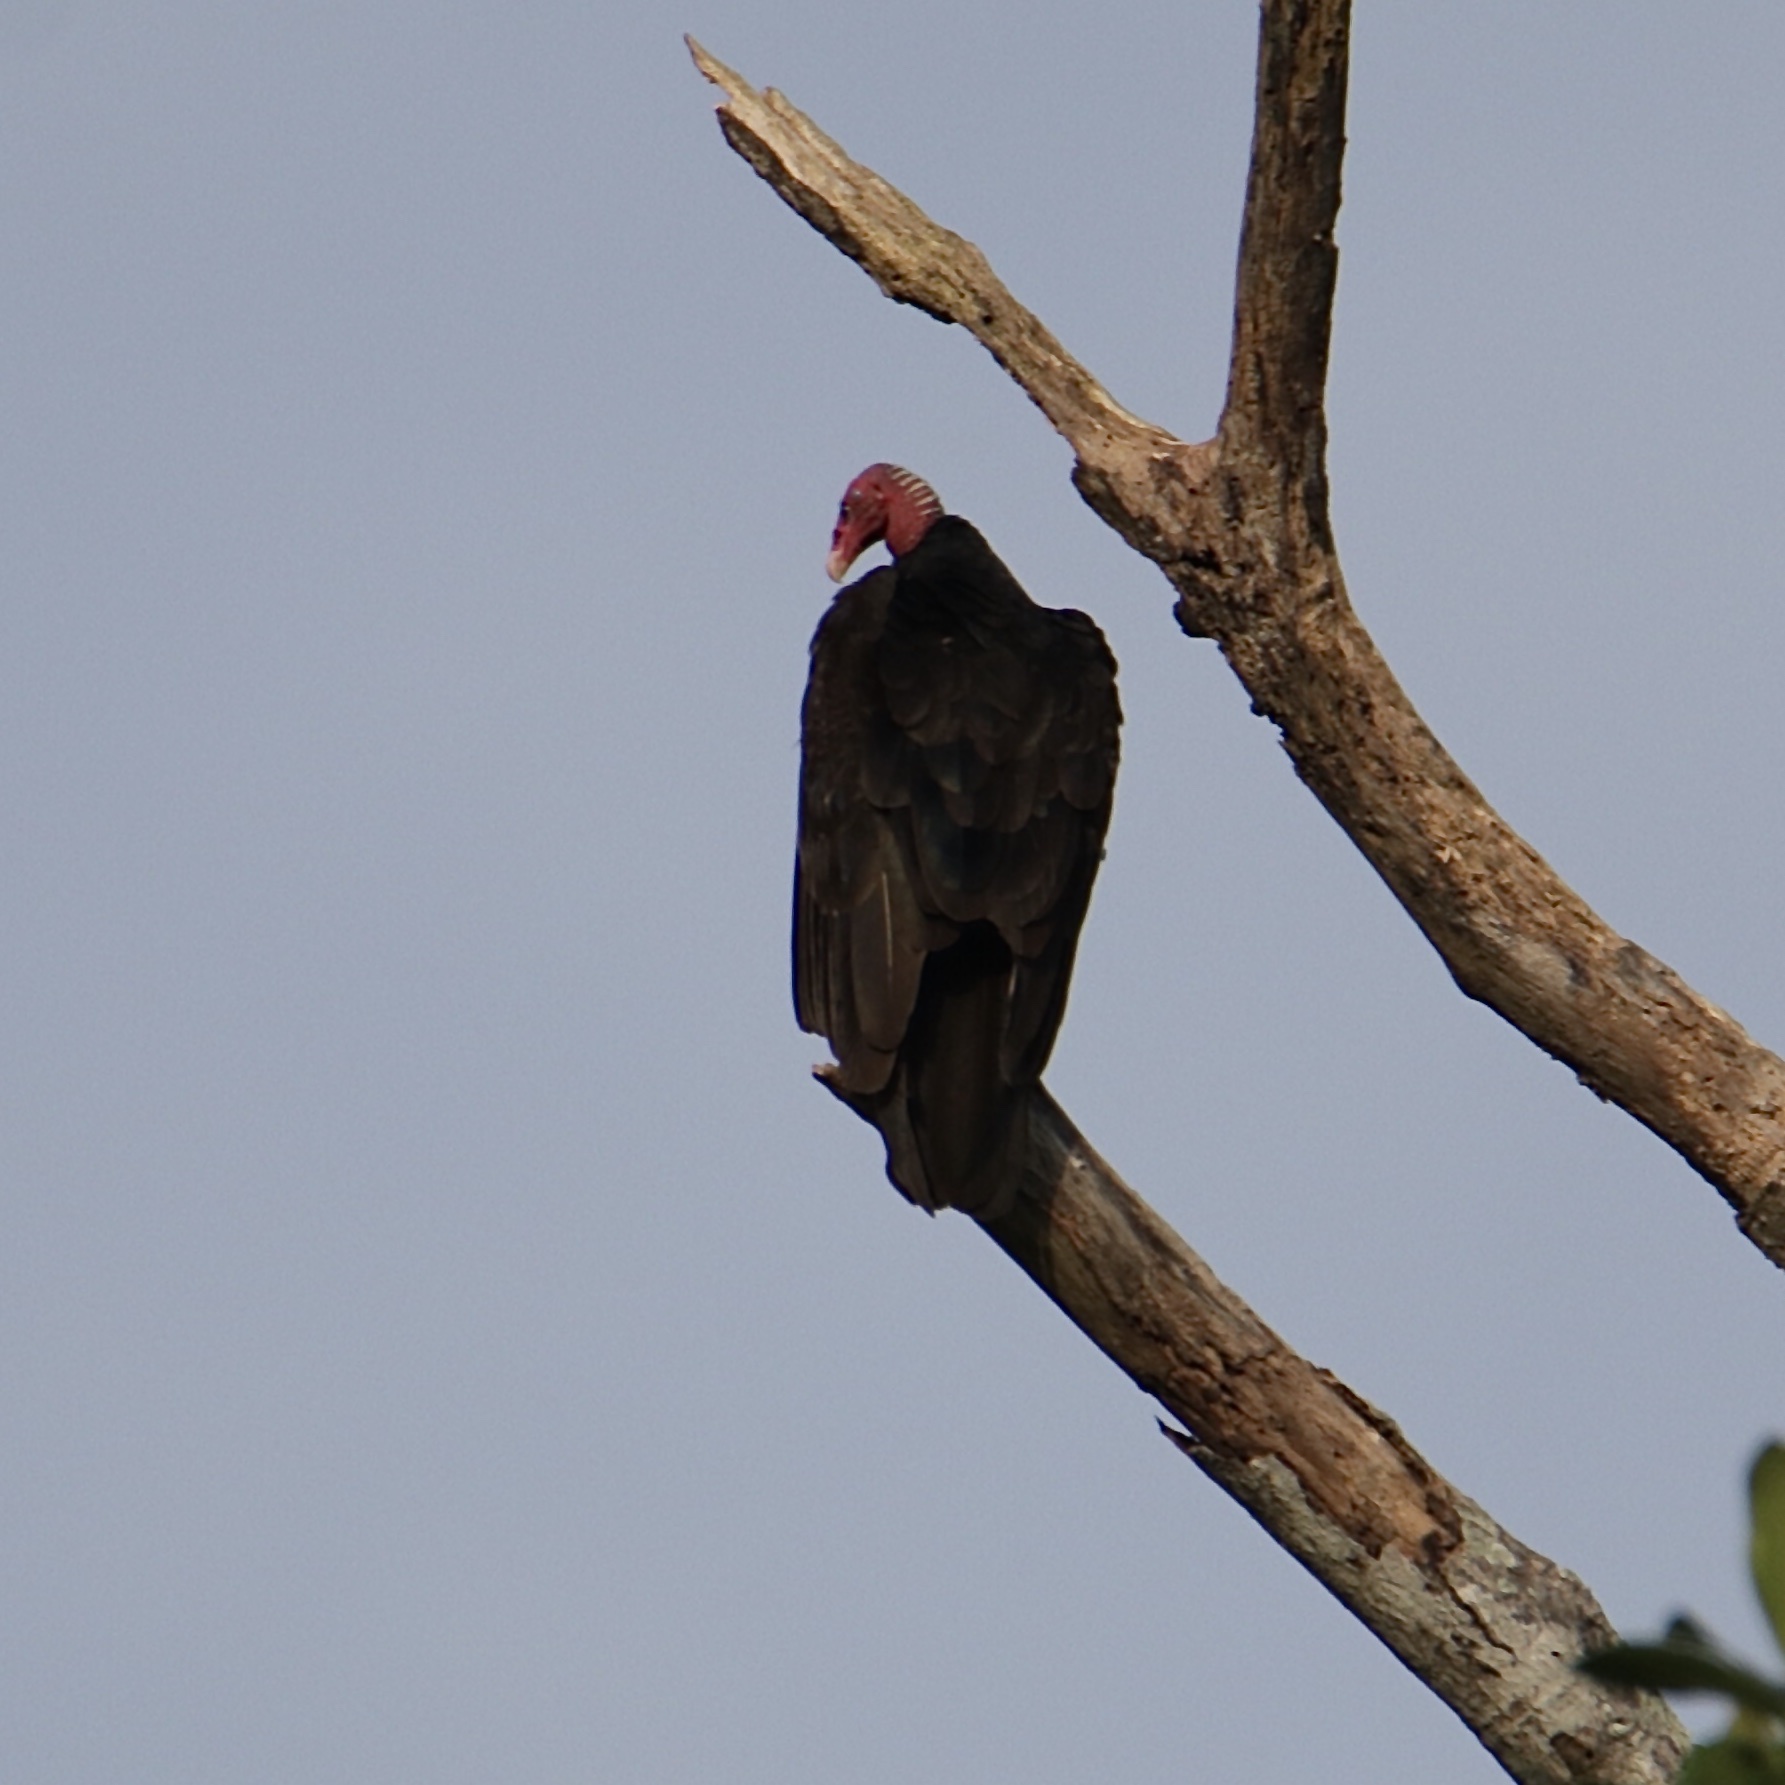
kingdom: Animalia
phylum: Chordata
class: Aves
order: Accipitriformes
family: Cathartidae
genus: Cathartes
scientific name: Cathartes aura
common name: Turkey vulture
